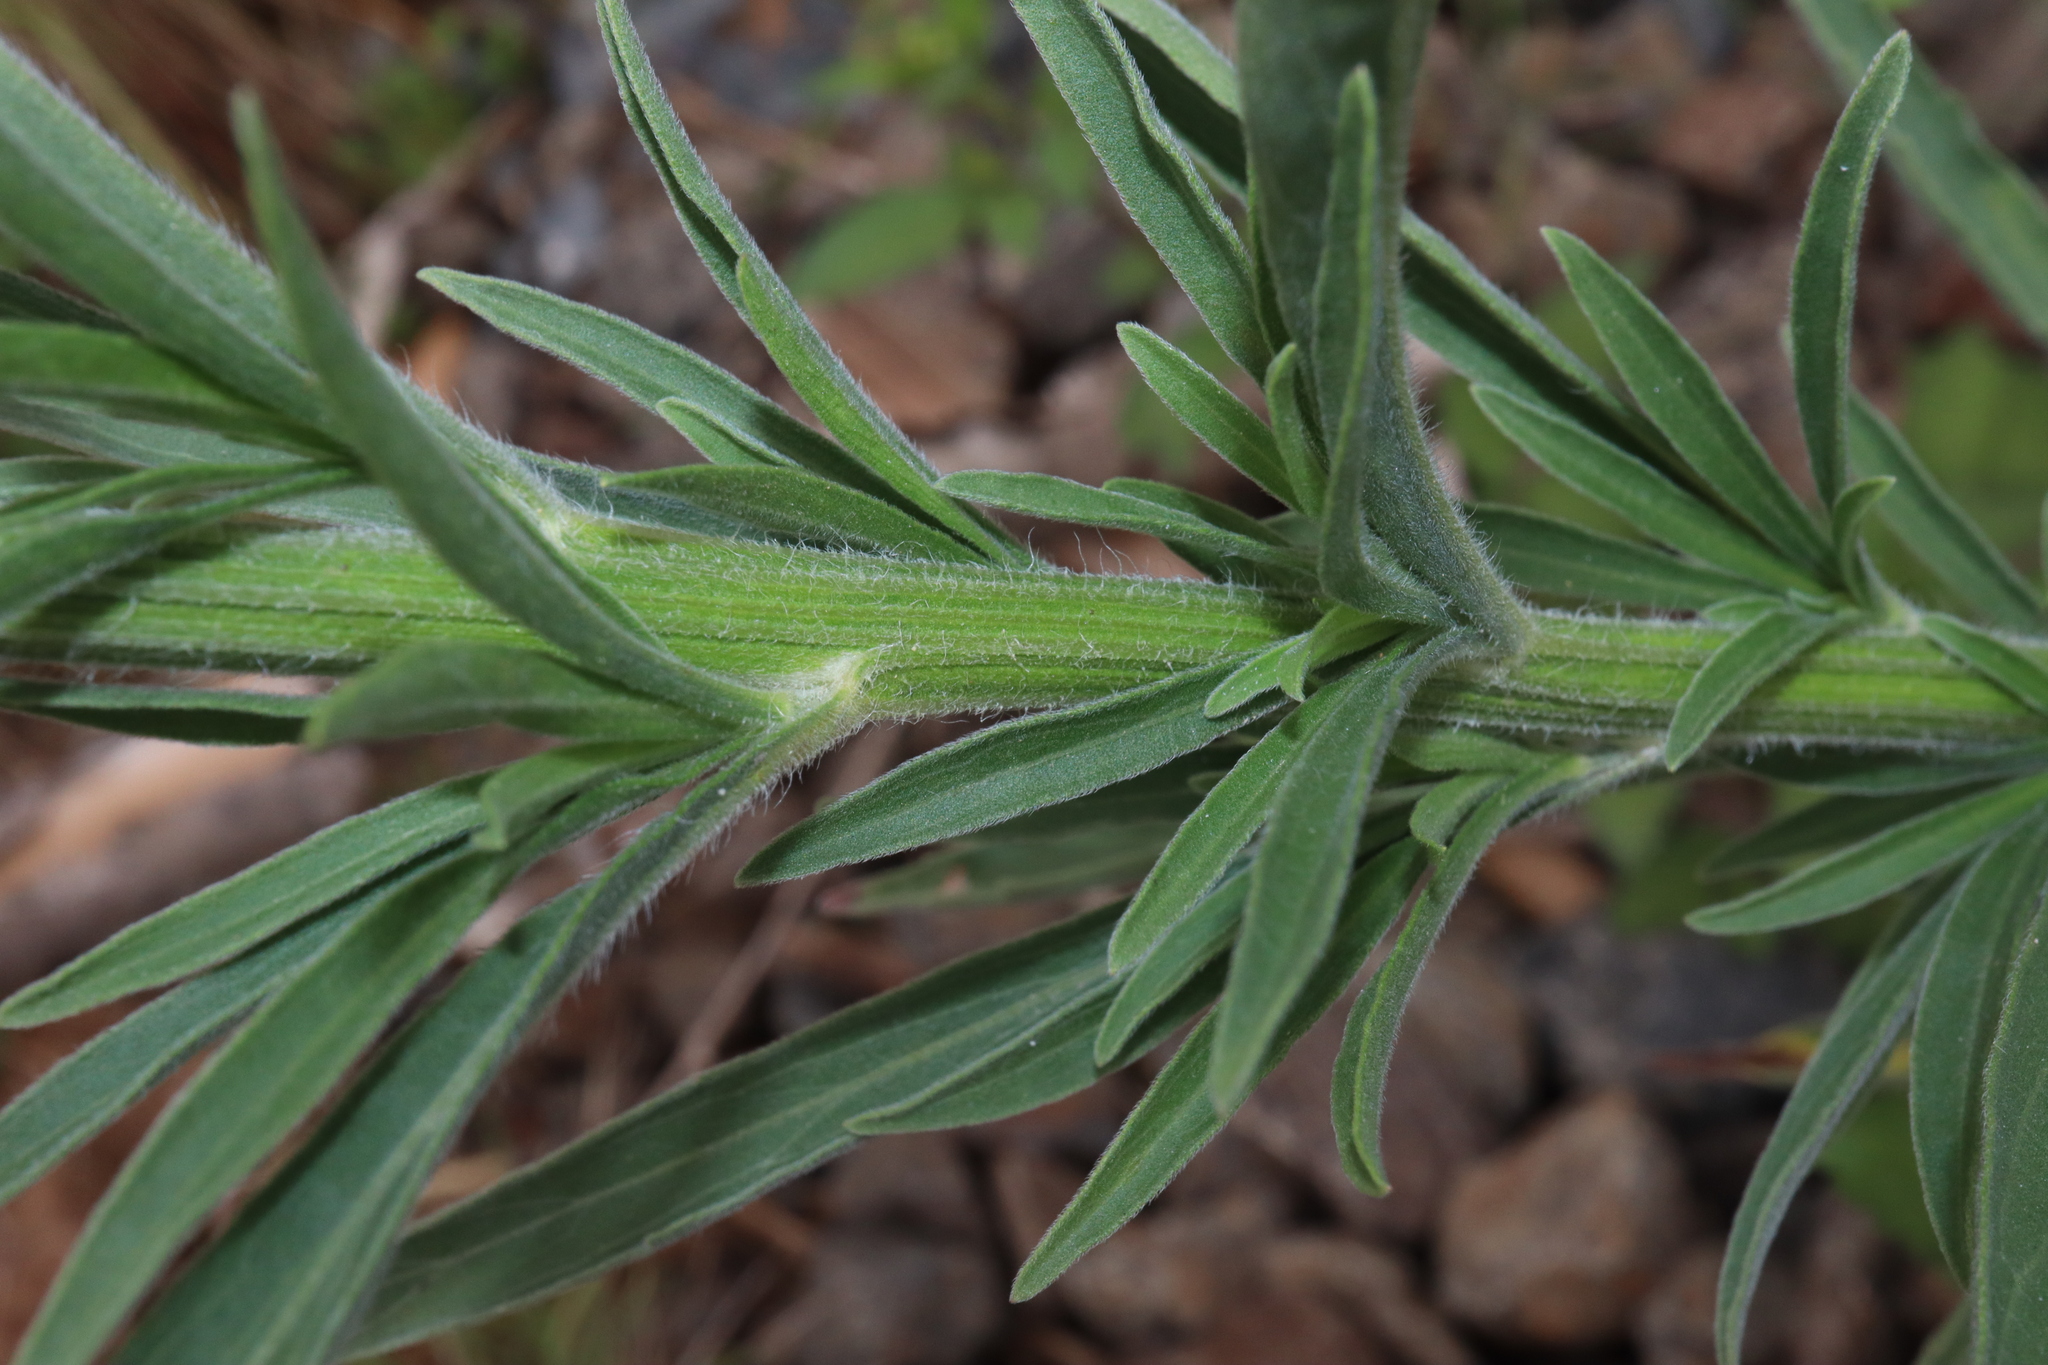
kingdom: Plantae
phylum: Tracheophyta
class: Magnoliopsida
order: Asterales
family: Asteraceae
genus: Erigeron
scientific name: Erigeron bonariensis
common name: Argentine fleabane
